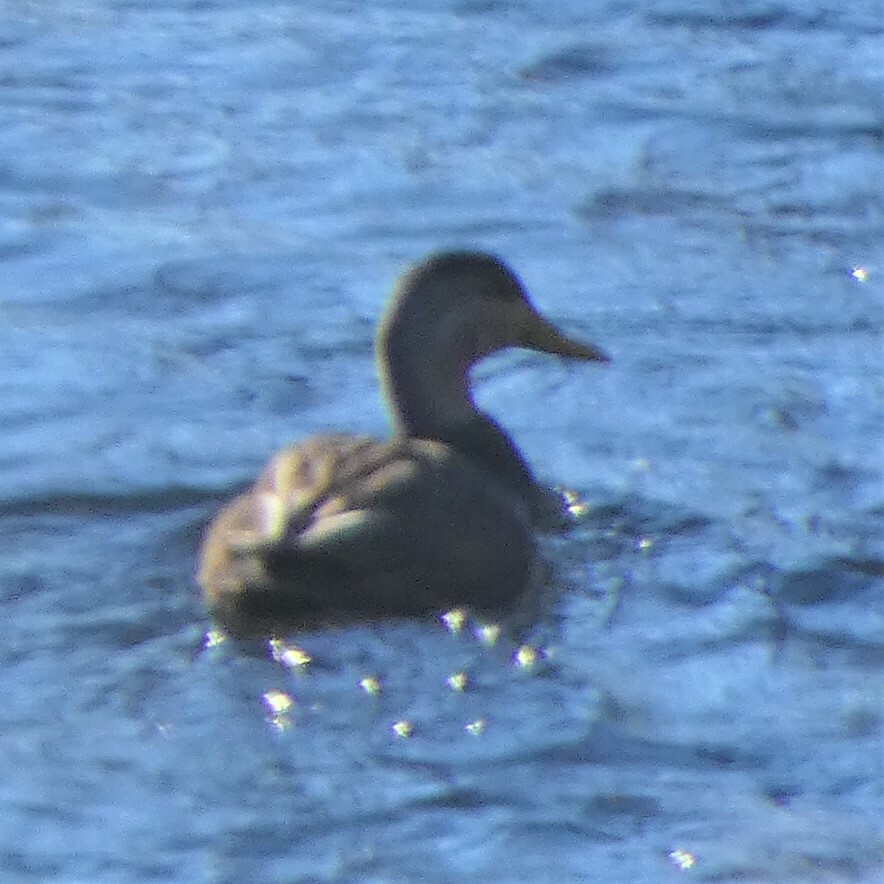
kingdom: Animalia
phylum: Chordata
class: Aves
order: Anseriformes
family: Anatidae
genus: Anas
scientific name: Anas rubripes
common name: American black duck
